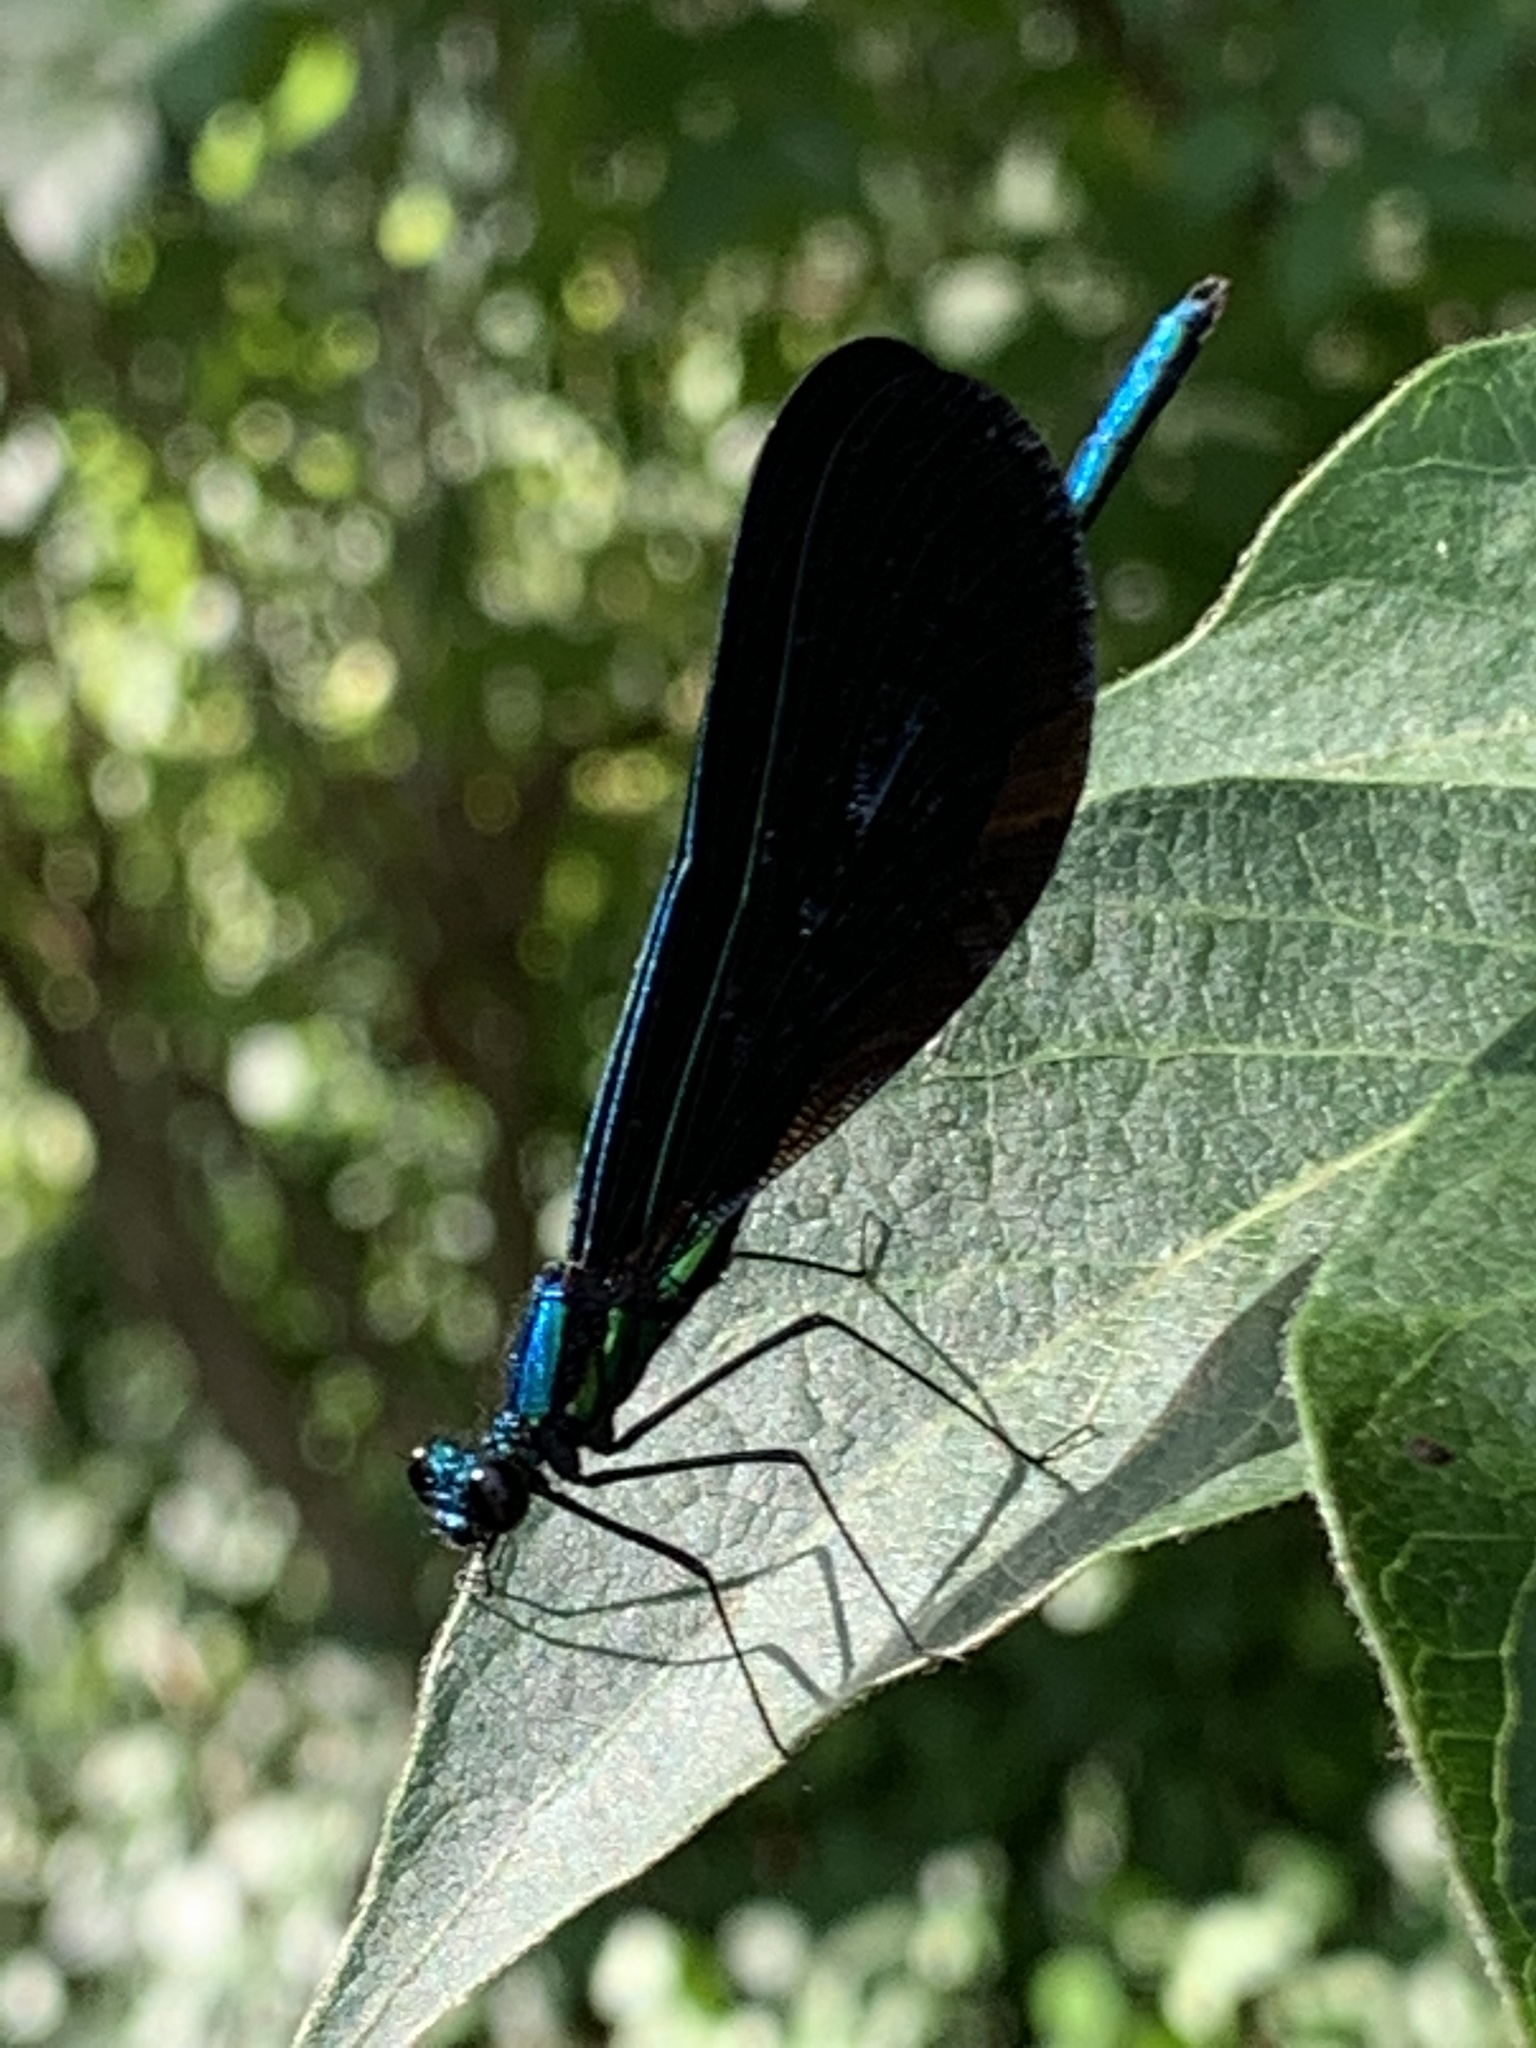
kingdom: Animalia
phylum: Arthropoda
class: Insecta
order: Odonata
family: Calopterygidae
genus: Calopteryx
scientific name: Calopteryx maculata
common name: Ebony jewelwing
